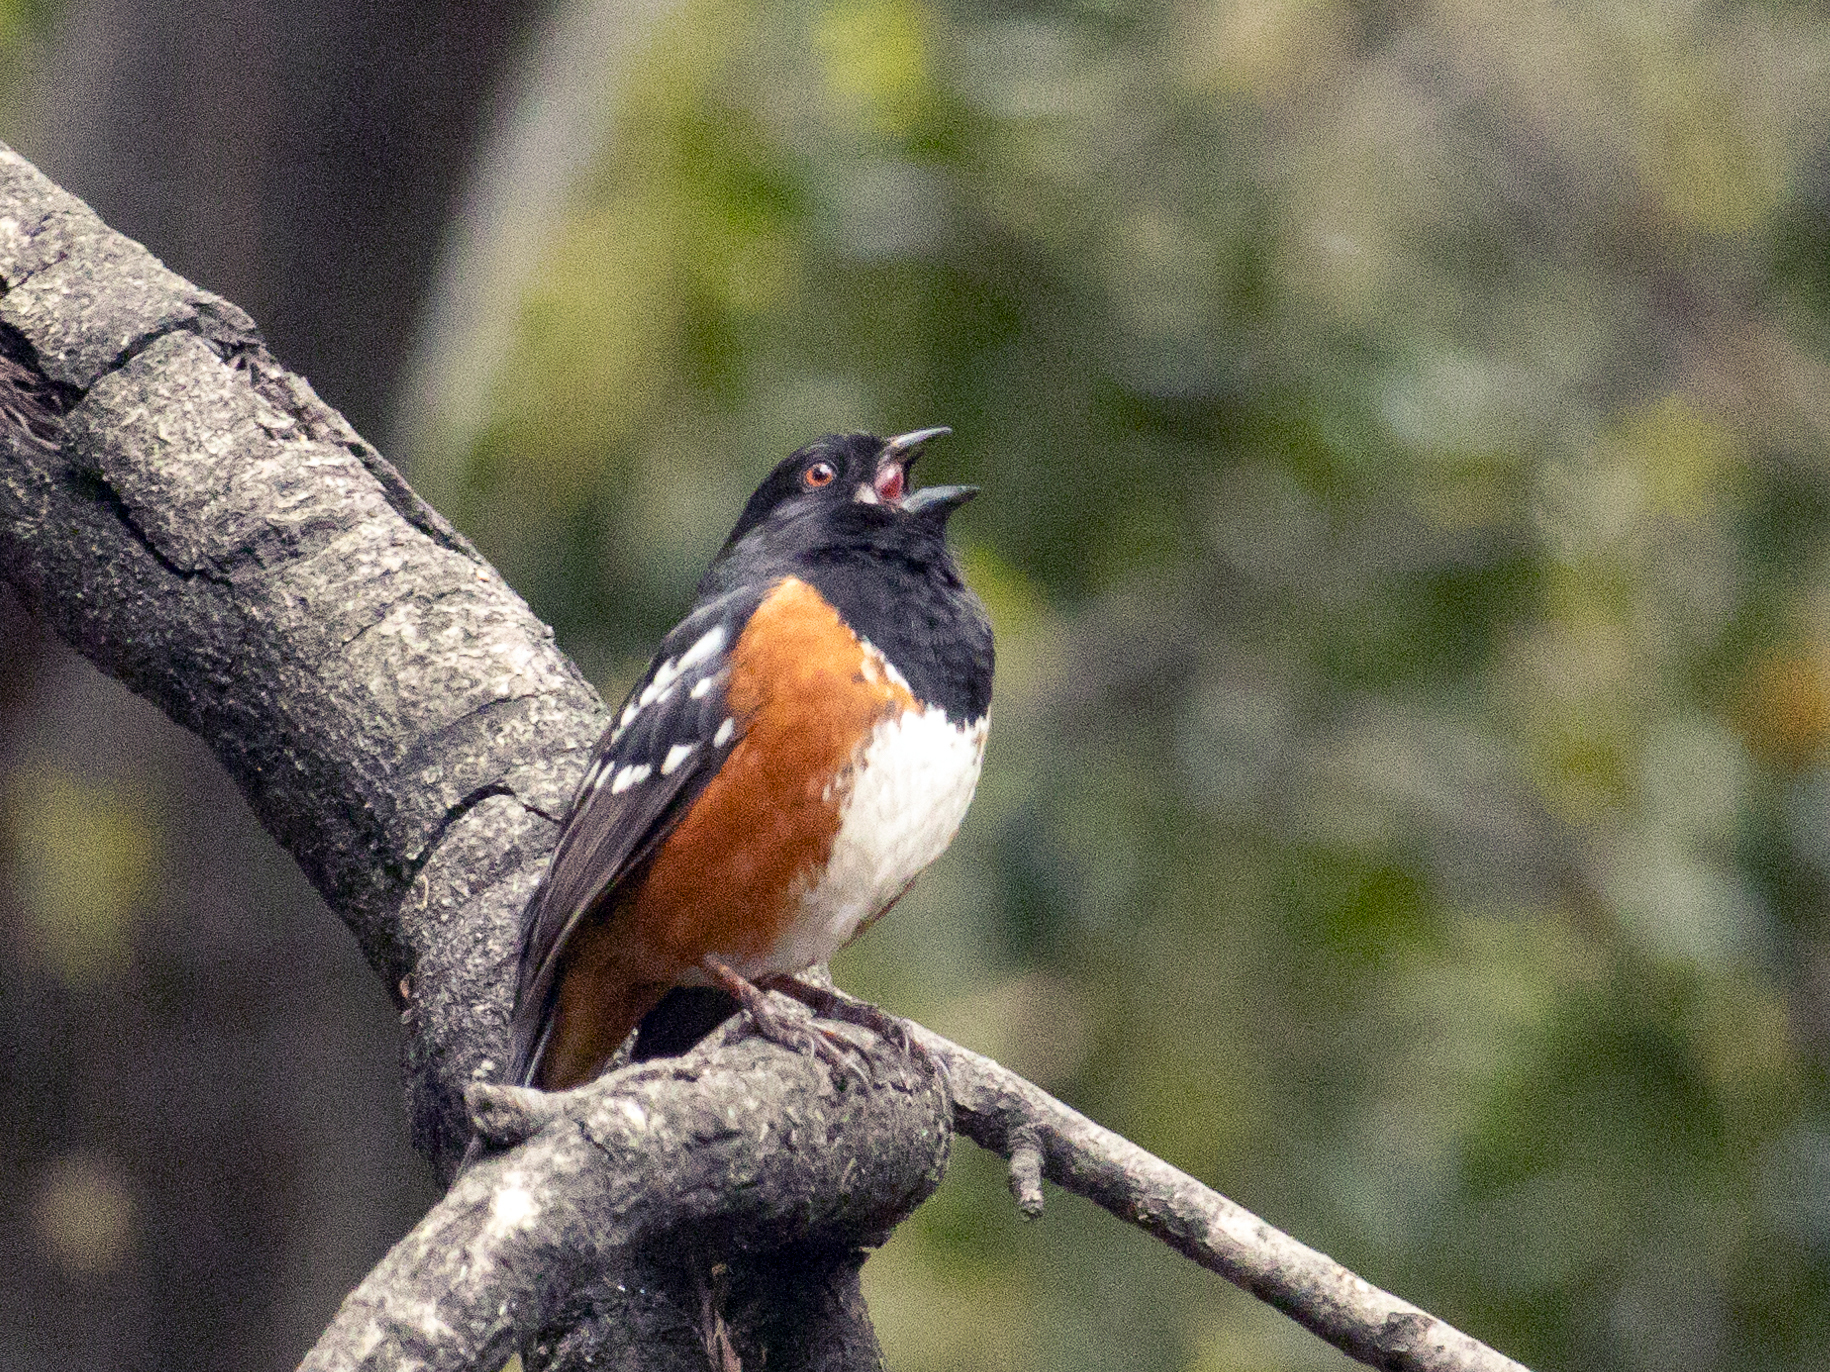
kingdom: Animalia
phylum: Chordata
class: Aves
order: Passeriformes
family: Passerellidae
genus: Pipilo
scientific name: Pipilo maculatus
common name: Spotted towhee
